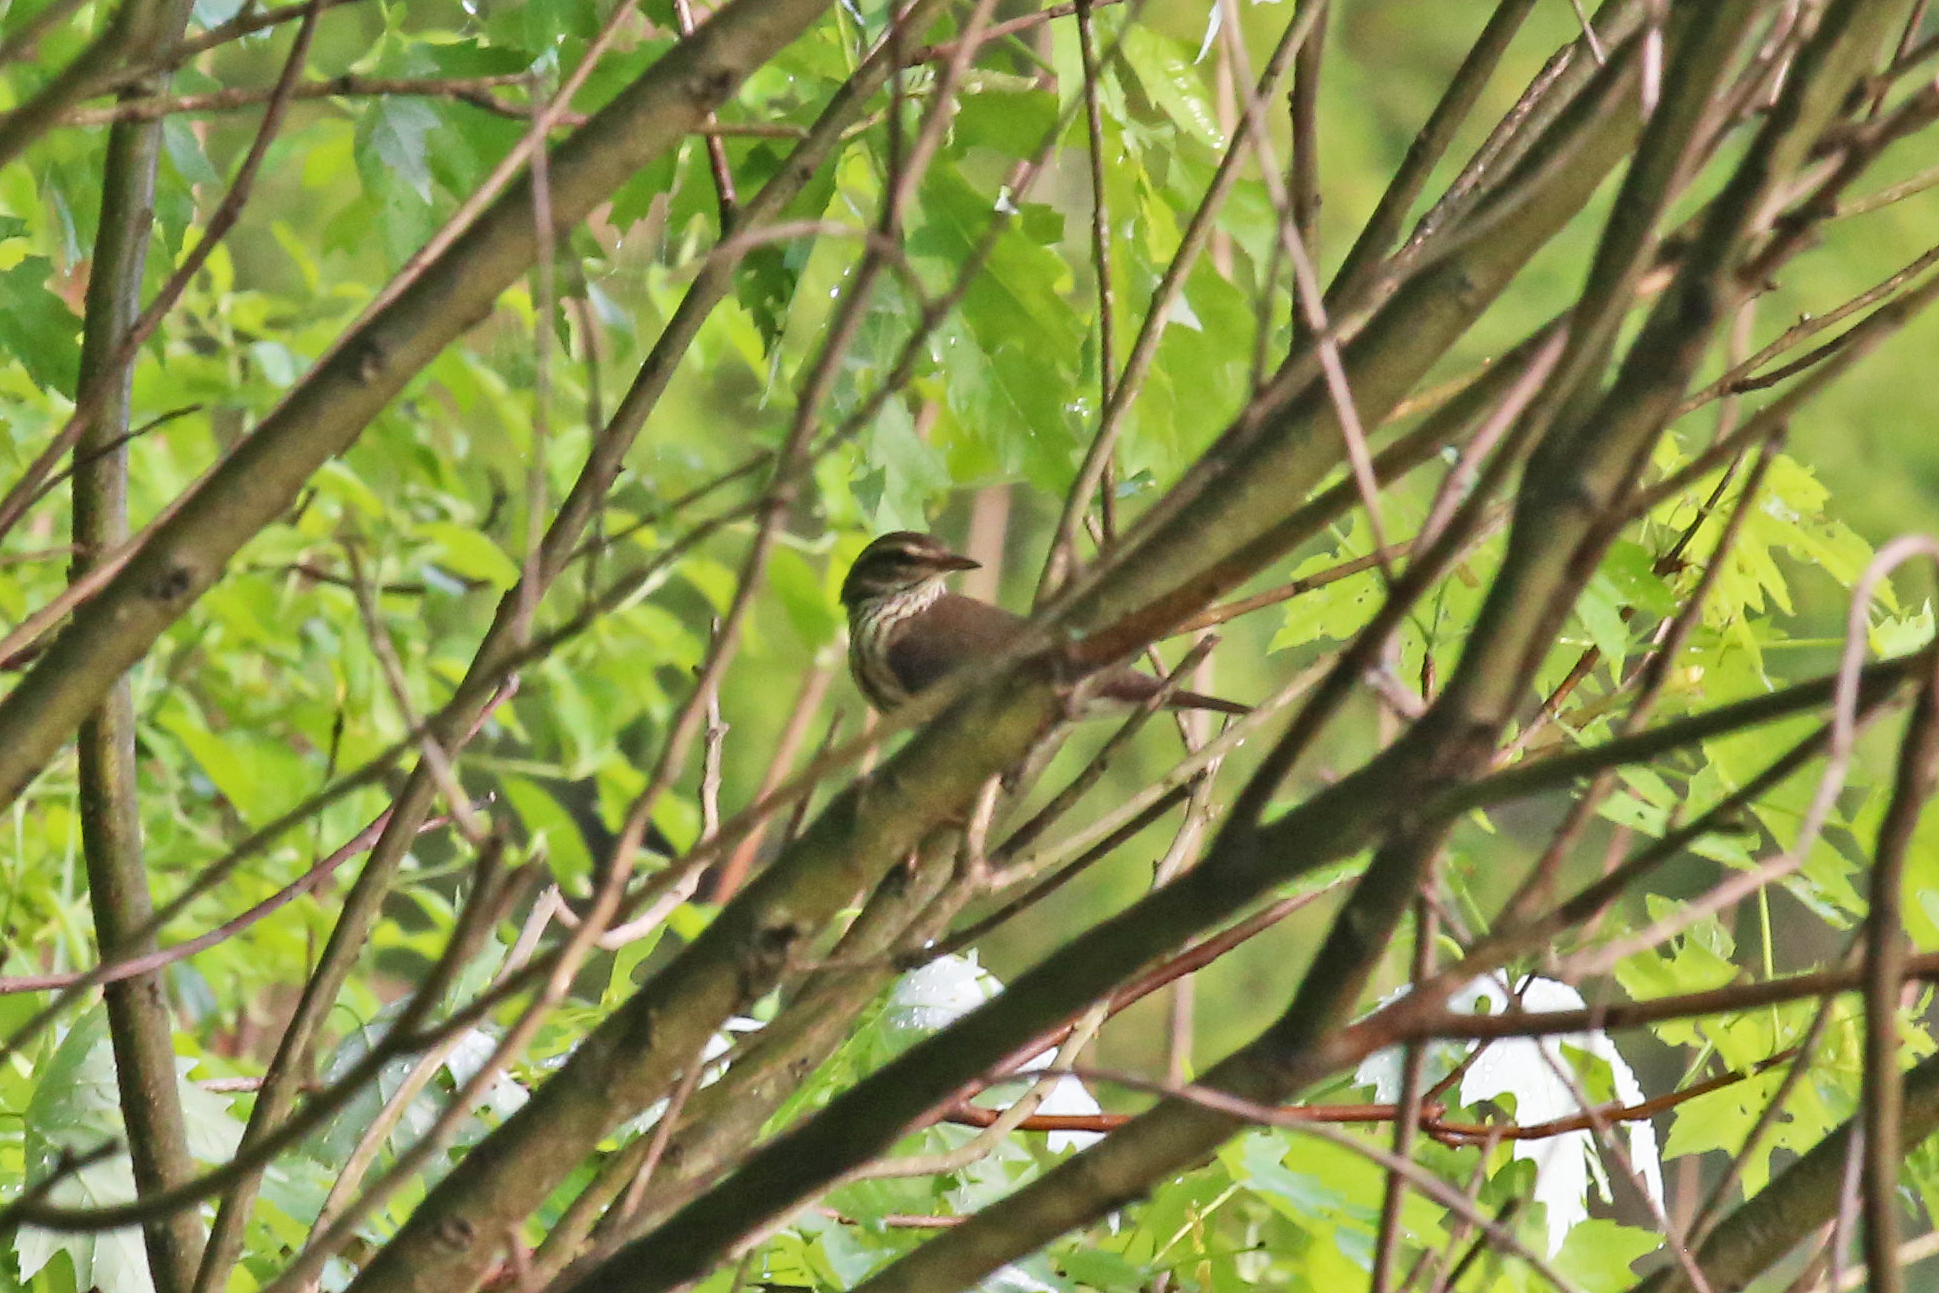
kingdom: Animalia
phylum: Chordata
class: Aves
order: Passeriformes
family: Parulidae
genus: Parkesia
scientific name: Parkesia noveboracensis
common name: Northern waterthrush
